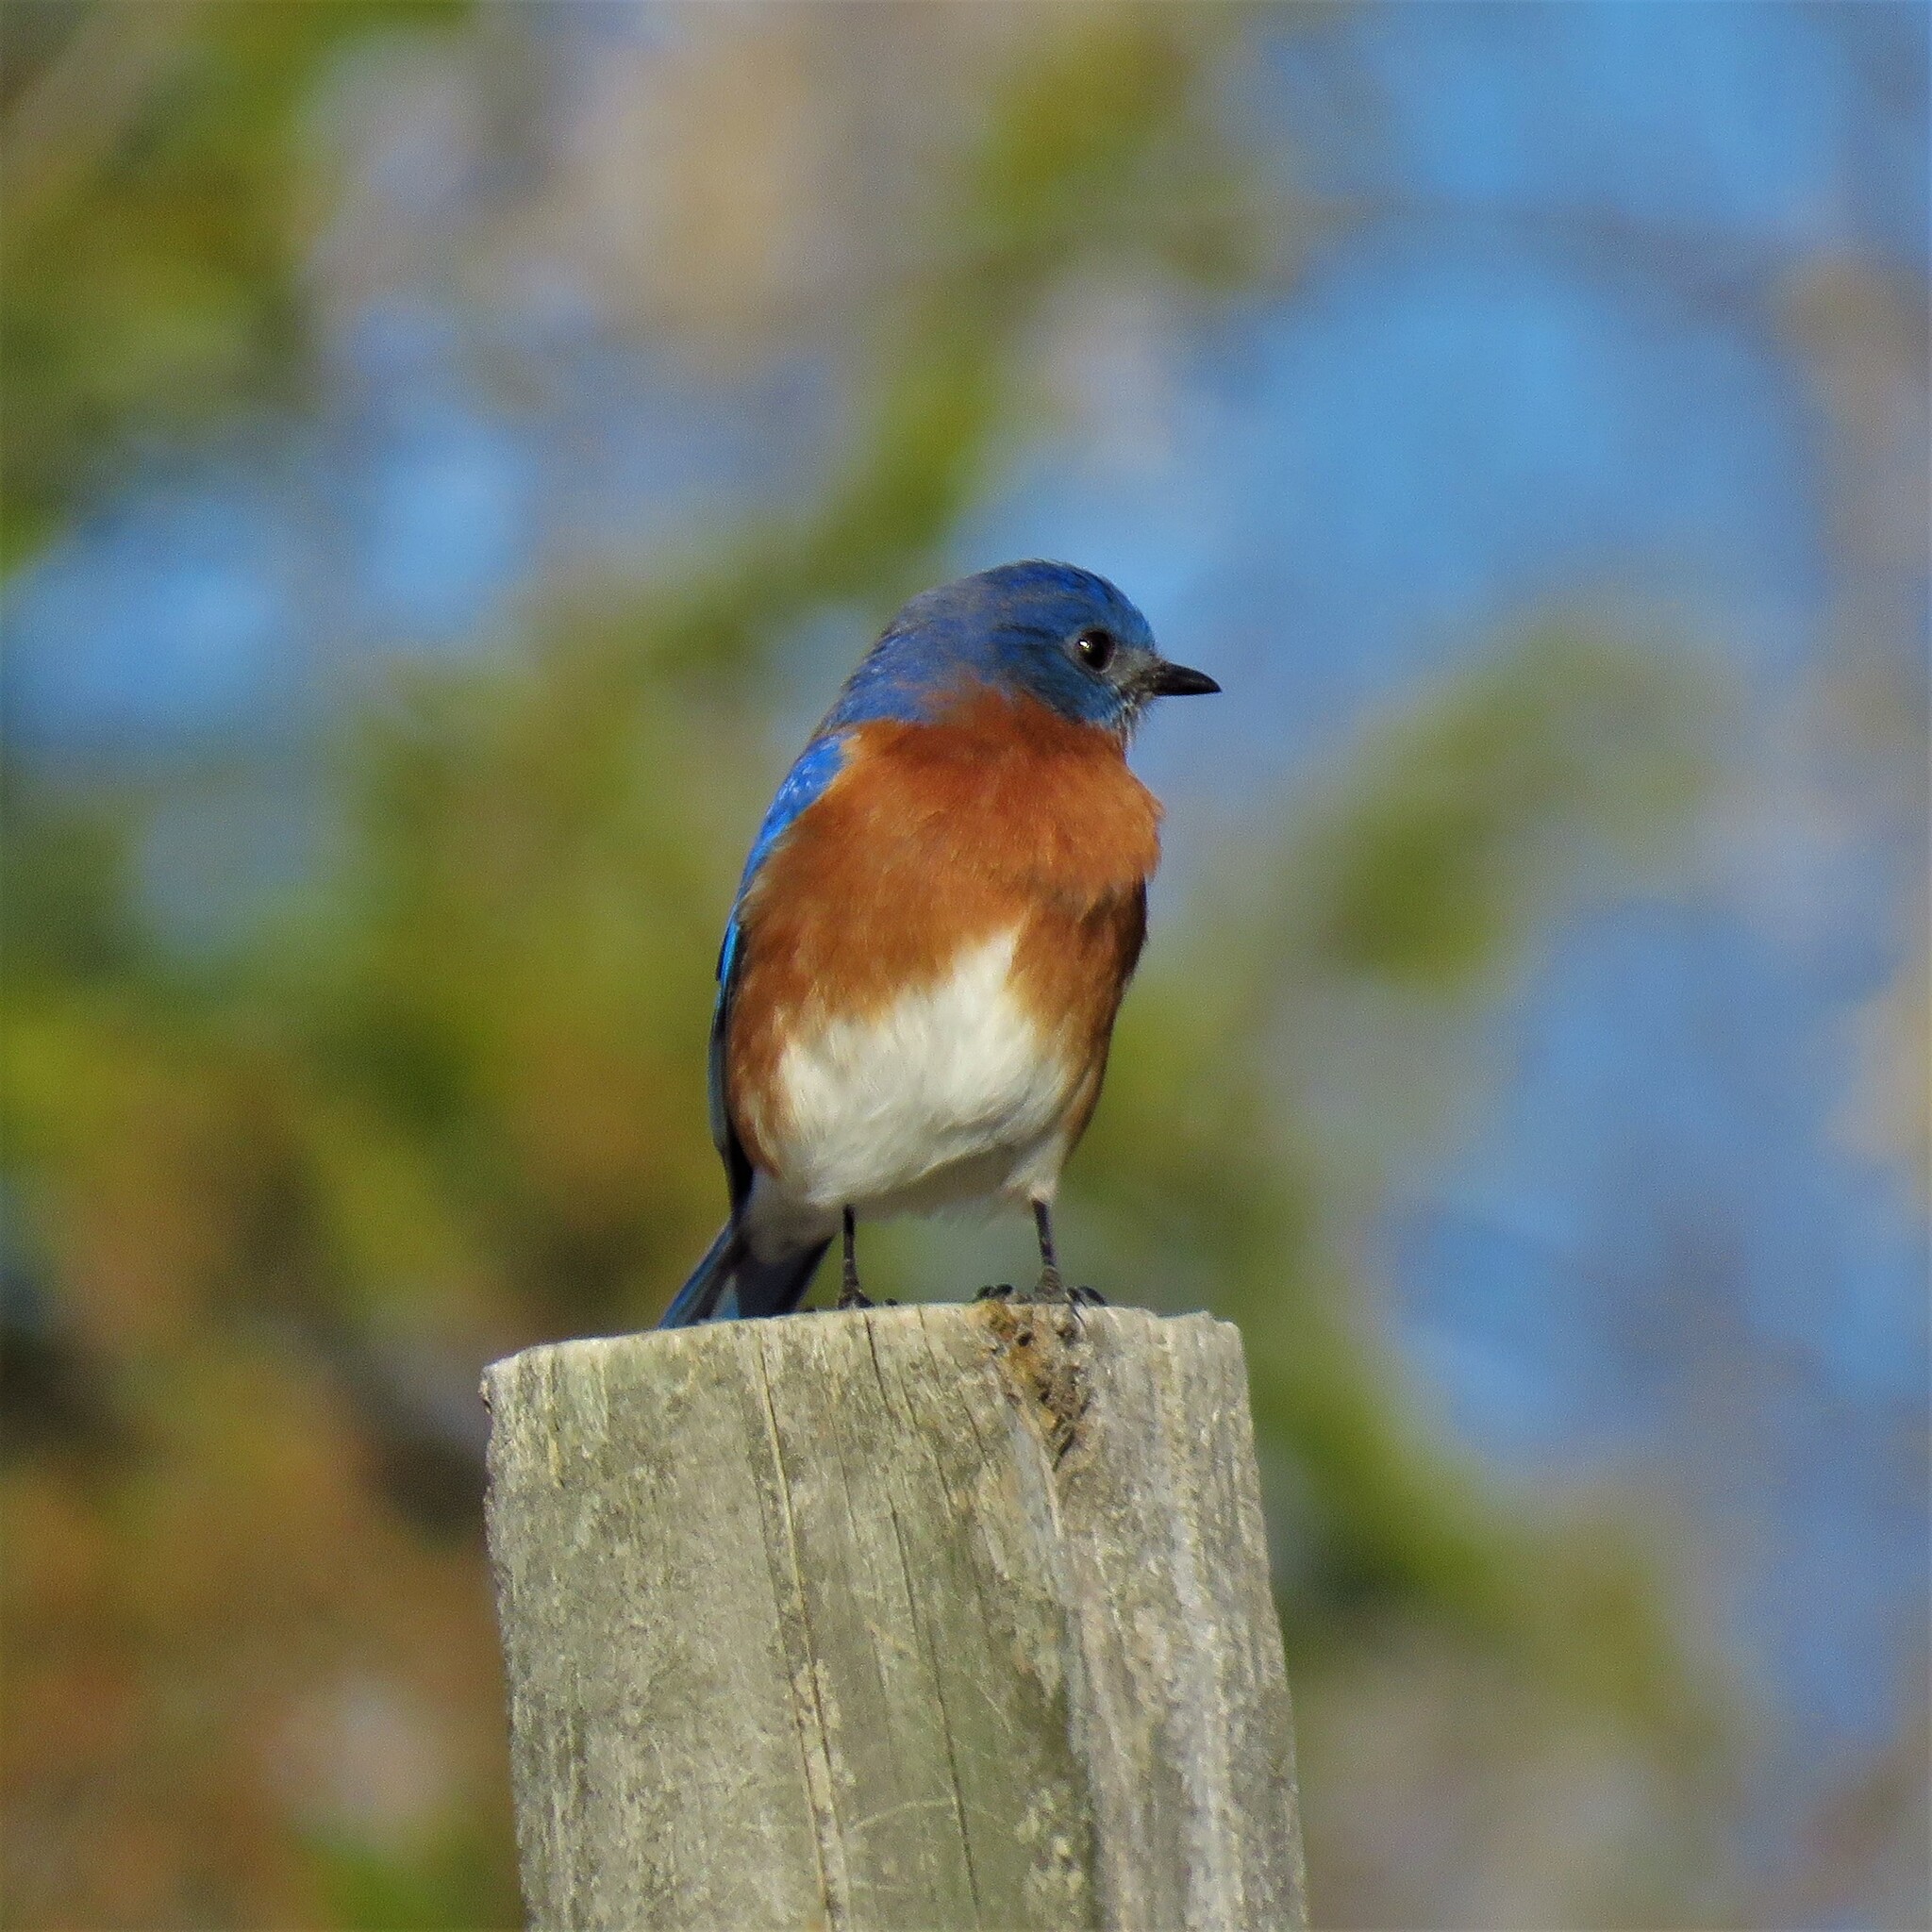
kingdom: Animalia
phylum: Chordata
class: Aves
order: Passeriformes
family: Turdidae
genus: Sialia
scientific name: Sialia sialis
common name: Eastern bluebird
